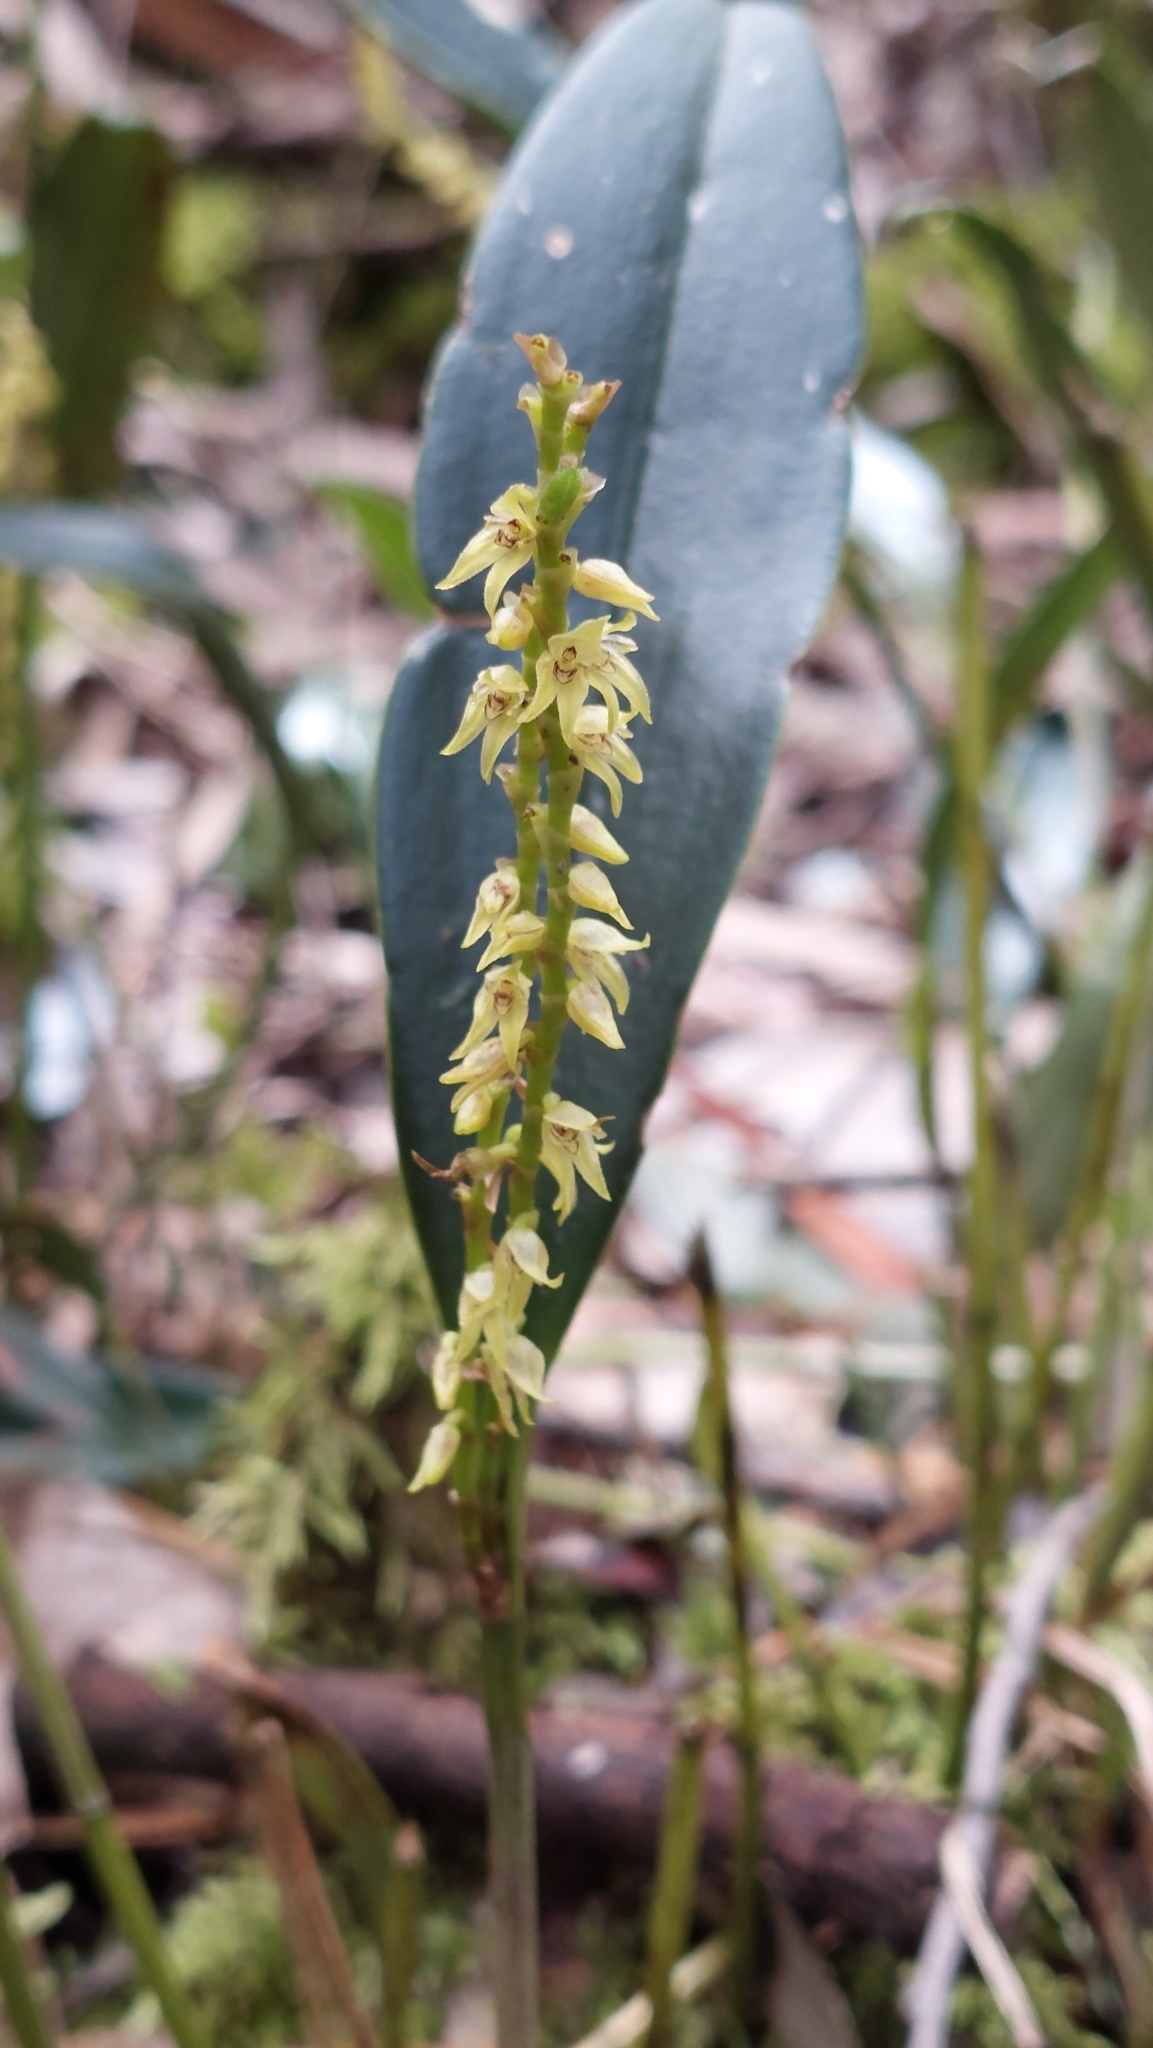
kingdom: Plantae
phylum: Tracheophyta
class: Liliopsida
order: Asparagales
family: Orchidaceae
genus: Stelis
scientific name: Stelis galeata
